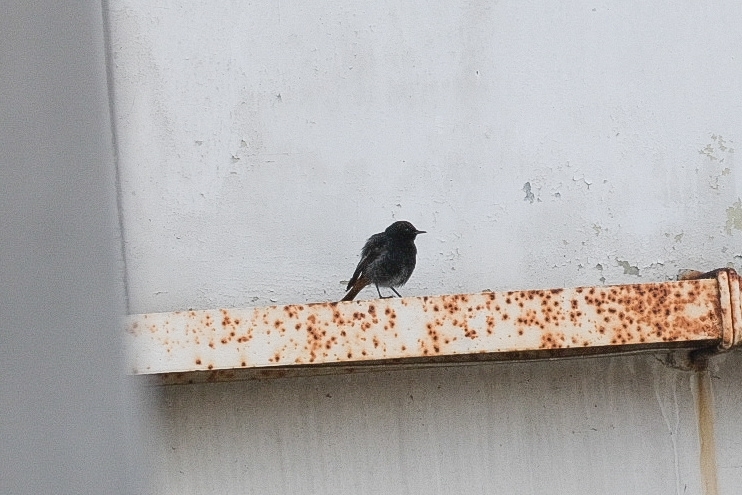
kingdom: Animalia
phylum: Chordata
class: Aves
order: Passeriformes
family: Muscicapidae
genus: Phoenicurus
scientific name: Phoenicurus ochruros
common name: Black redstart
